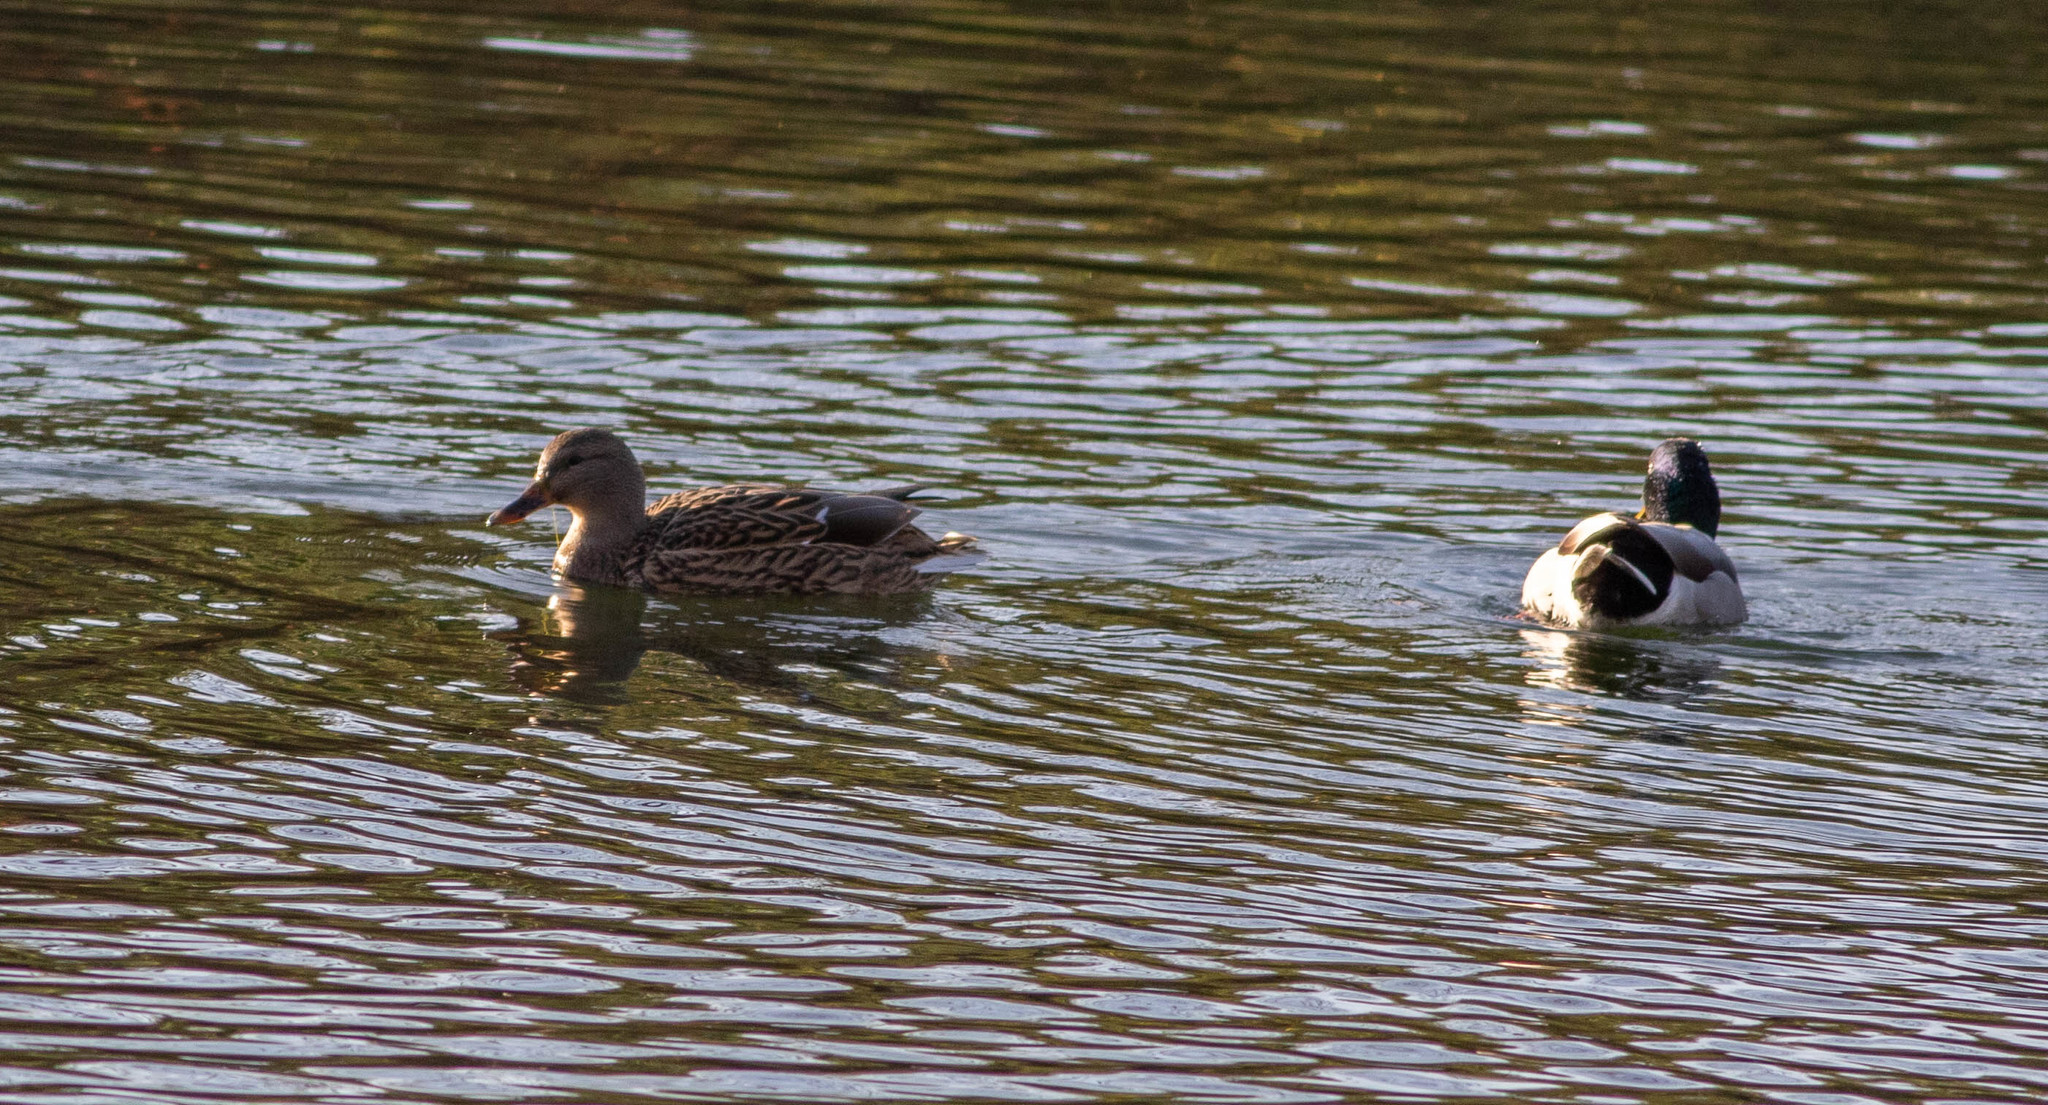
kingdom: Animalia
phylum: Chordata
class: Aves
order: Anseriformes
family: Anatidae
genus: Anas
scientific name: Anas platyrhynchos
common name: Mallard
